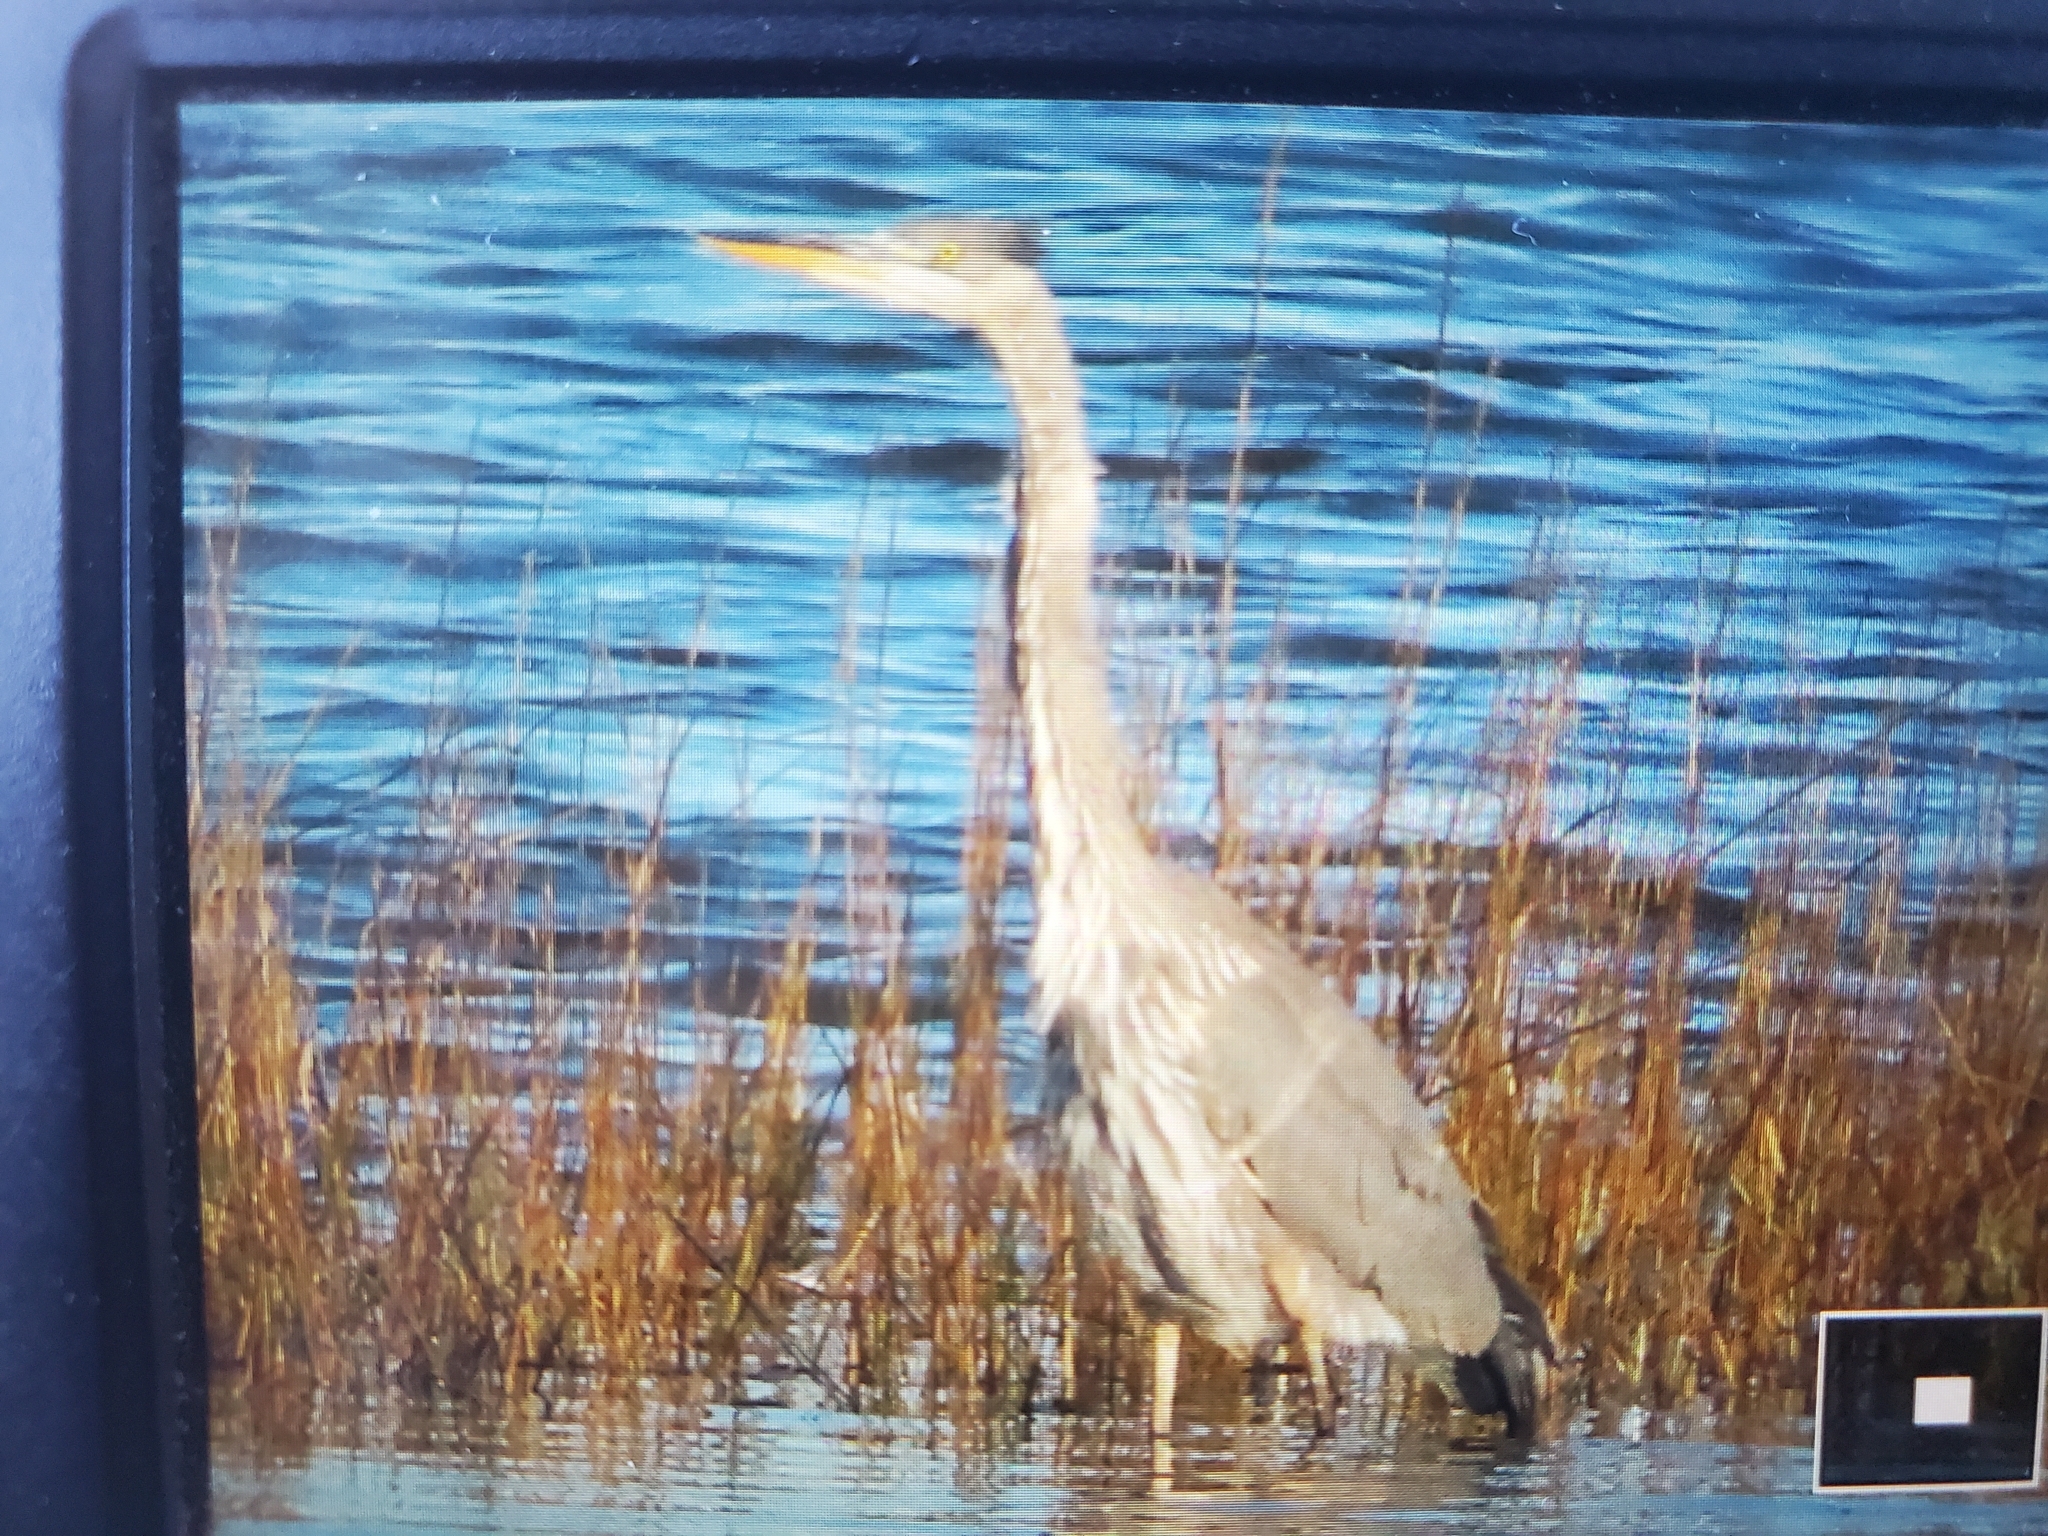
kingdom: Animalia
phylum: Chordata
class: Aves
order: Pelecaniformes
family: Ardeidae
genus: Ardea
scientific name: Ardea herodias
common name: Great blue heron
